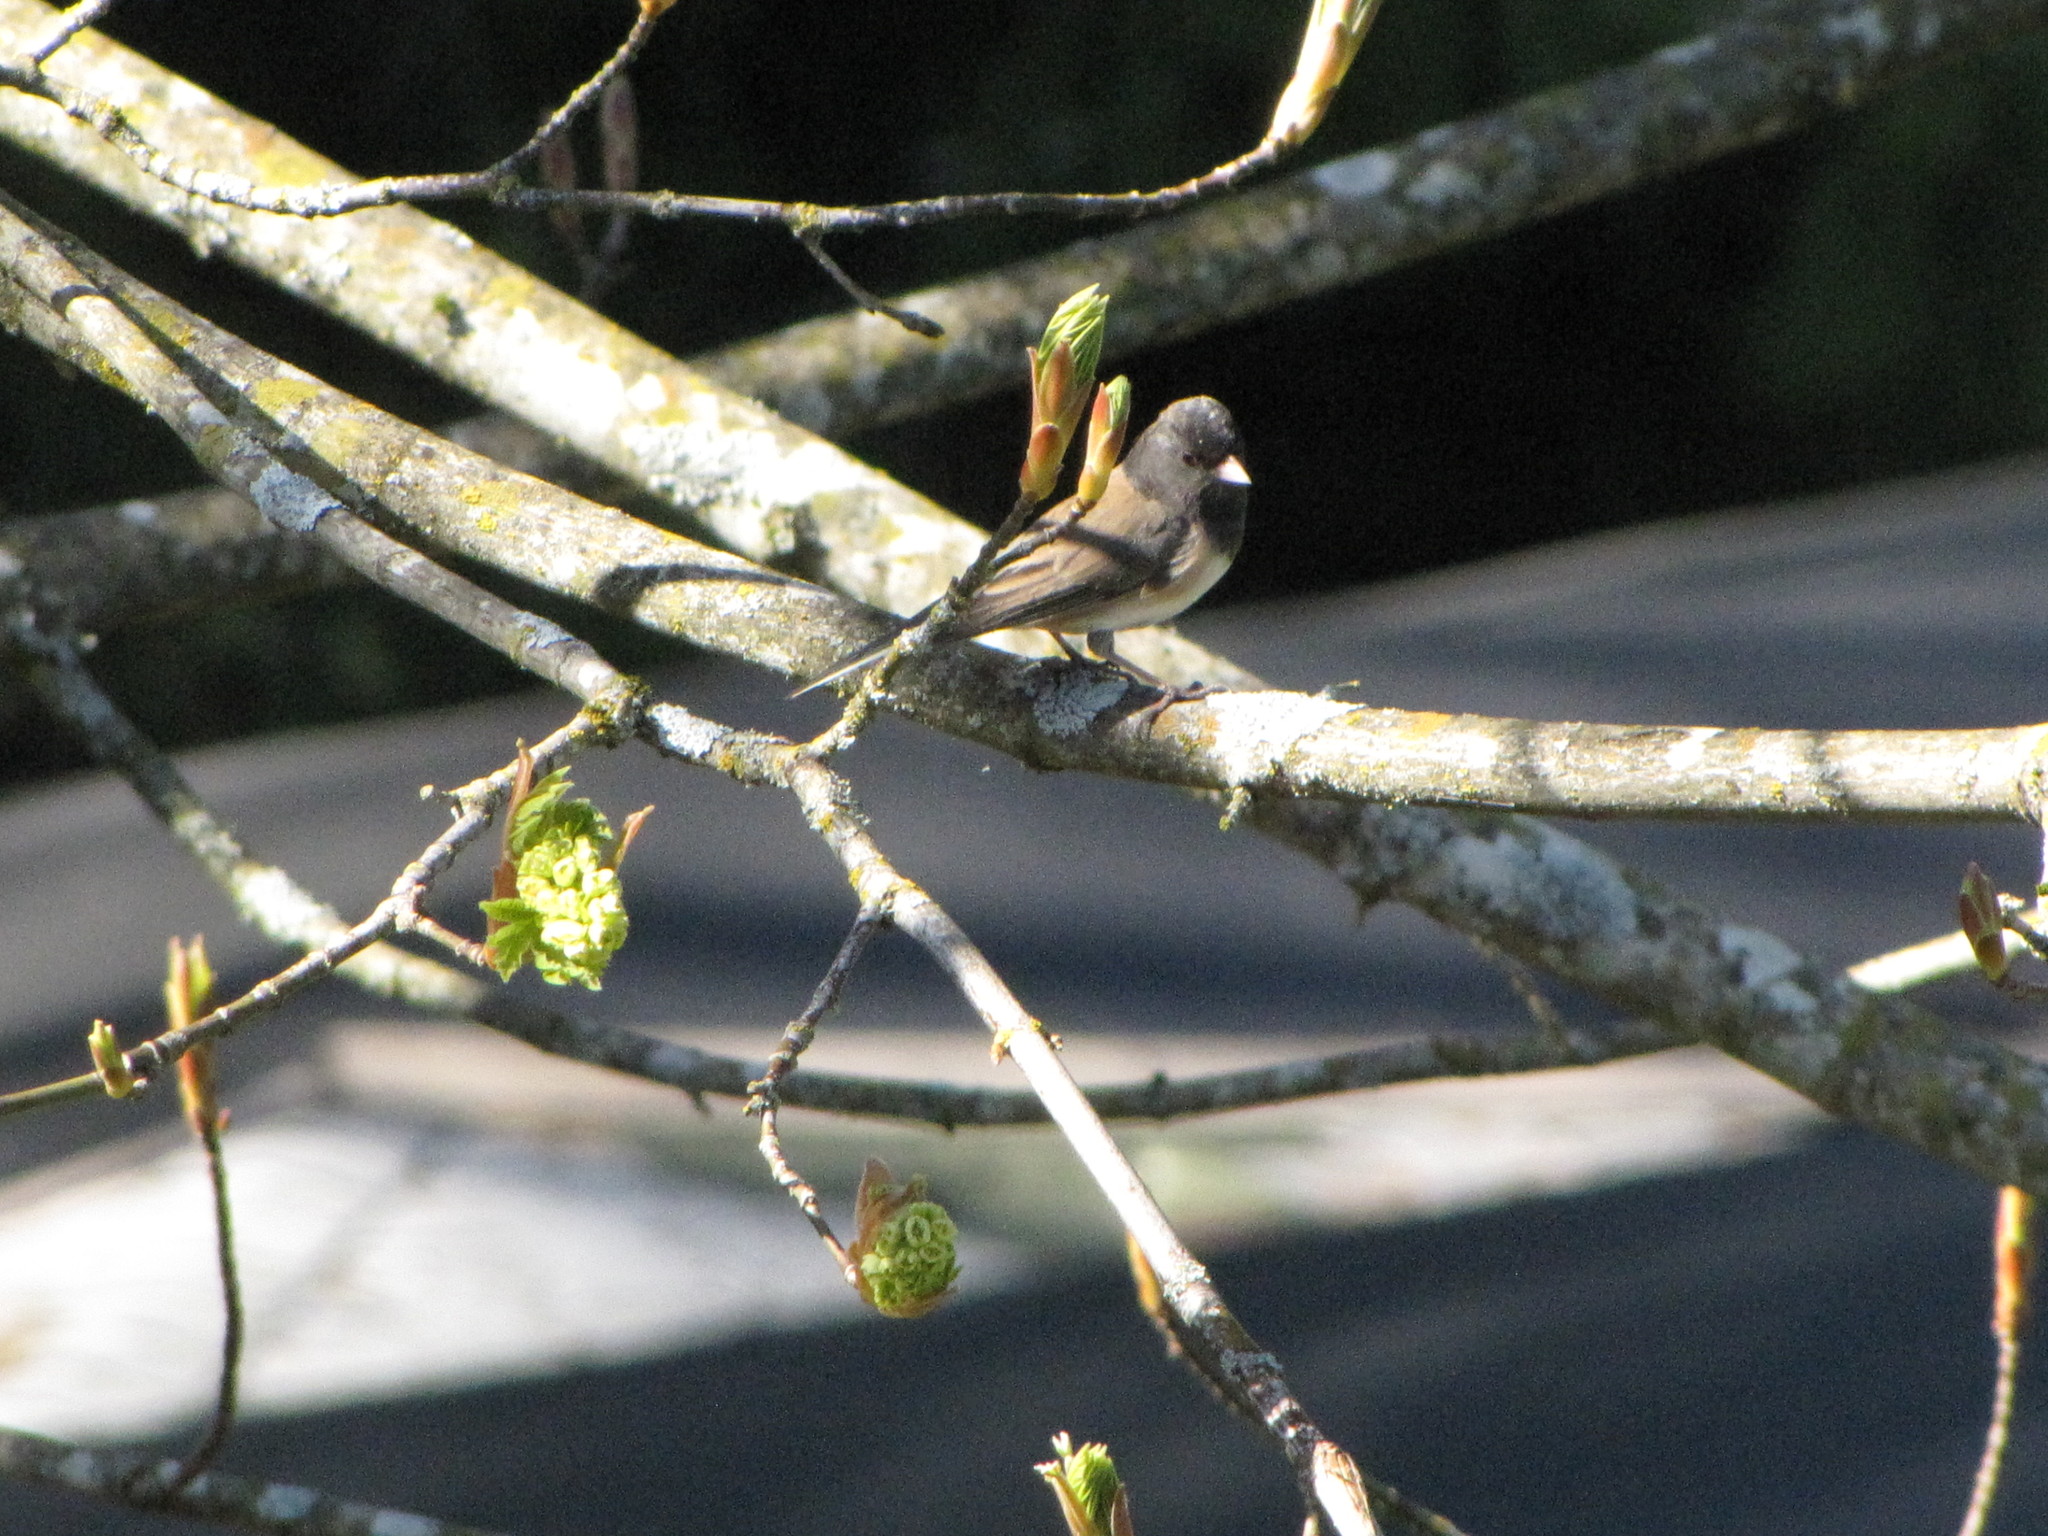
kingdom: Animalia
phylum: Chordata
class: Aves
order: Passeriformes
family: Passerellidae
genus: Junco
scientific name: Junco hyemalis
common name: Dark-eyed junco
